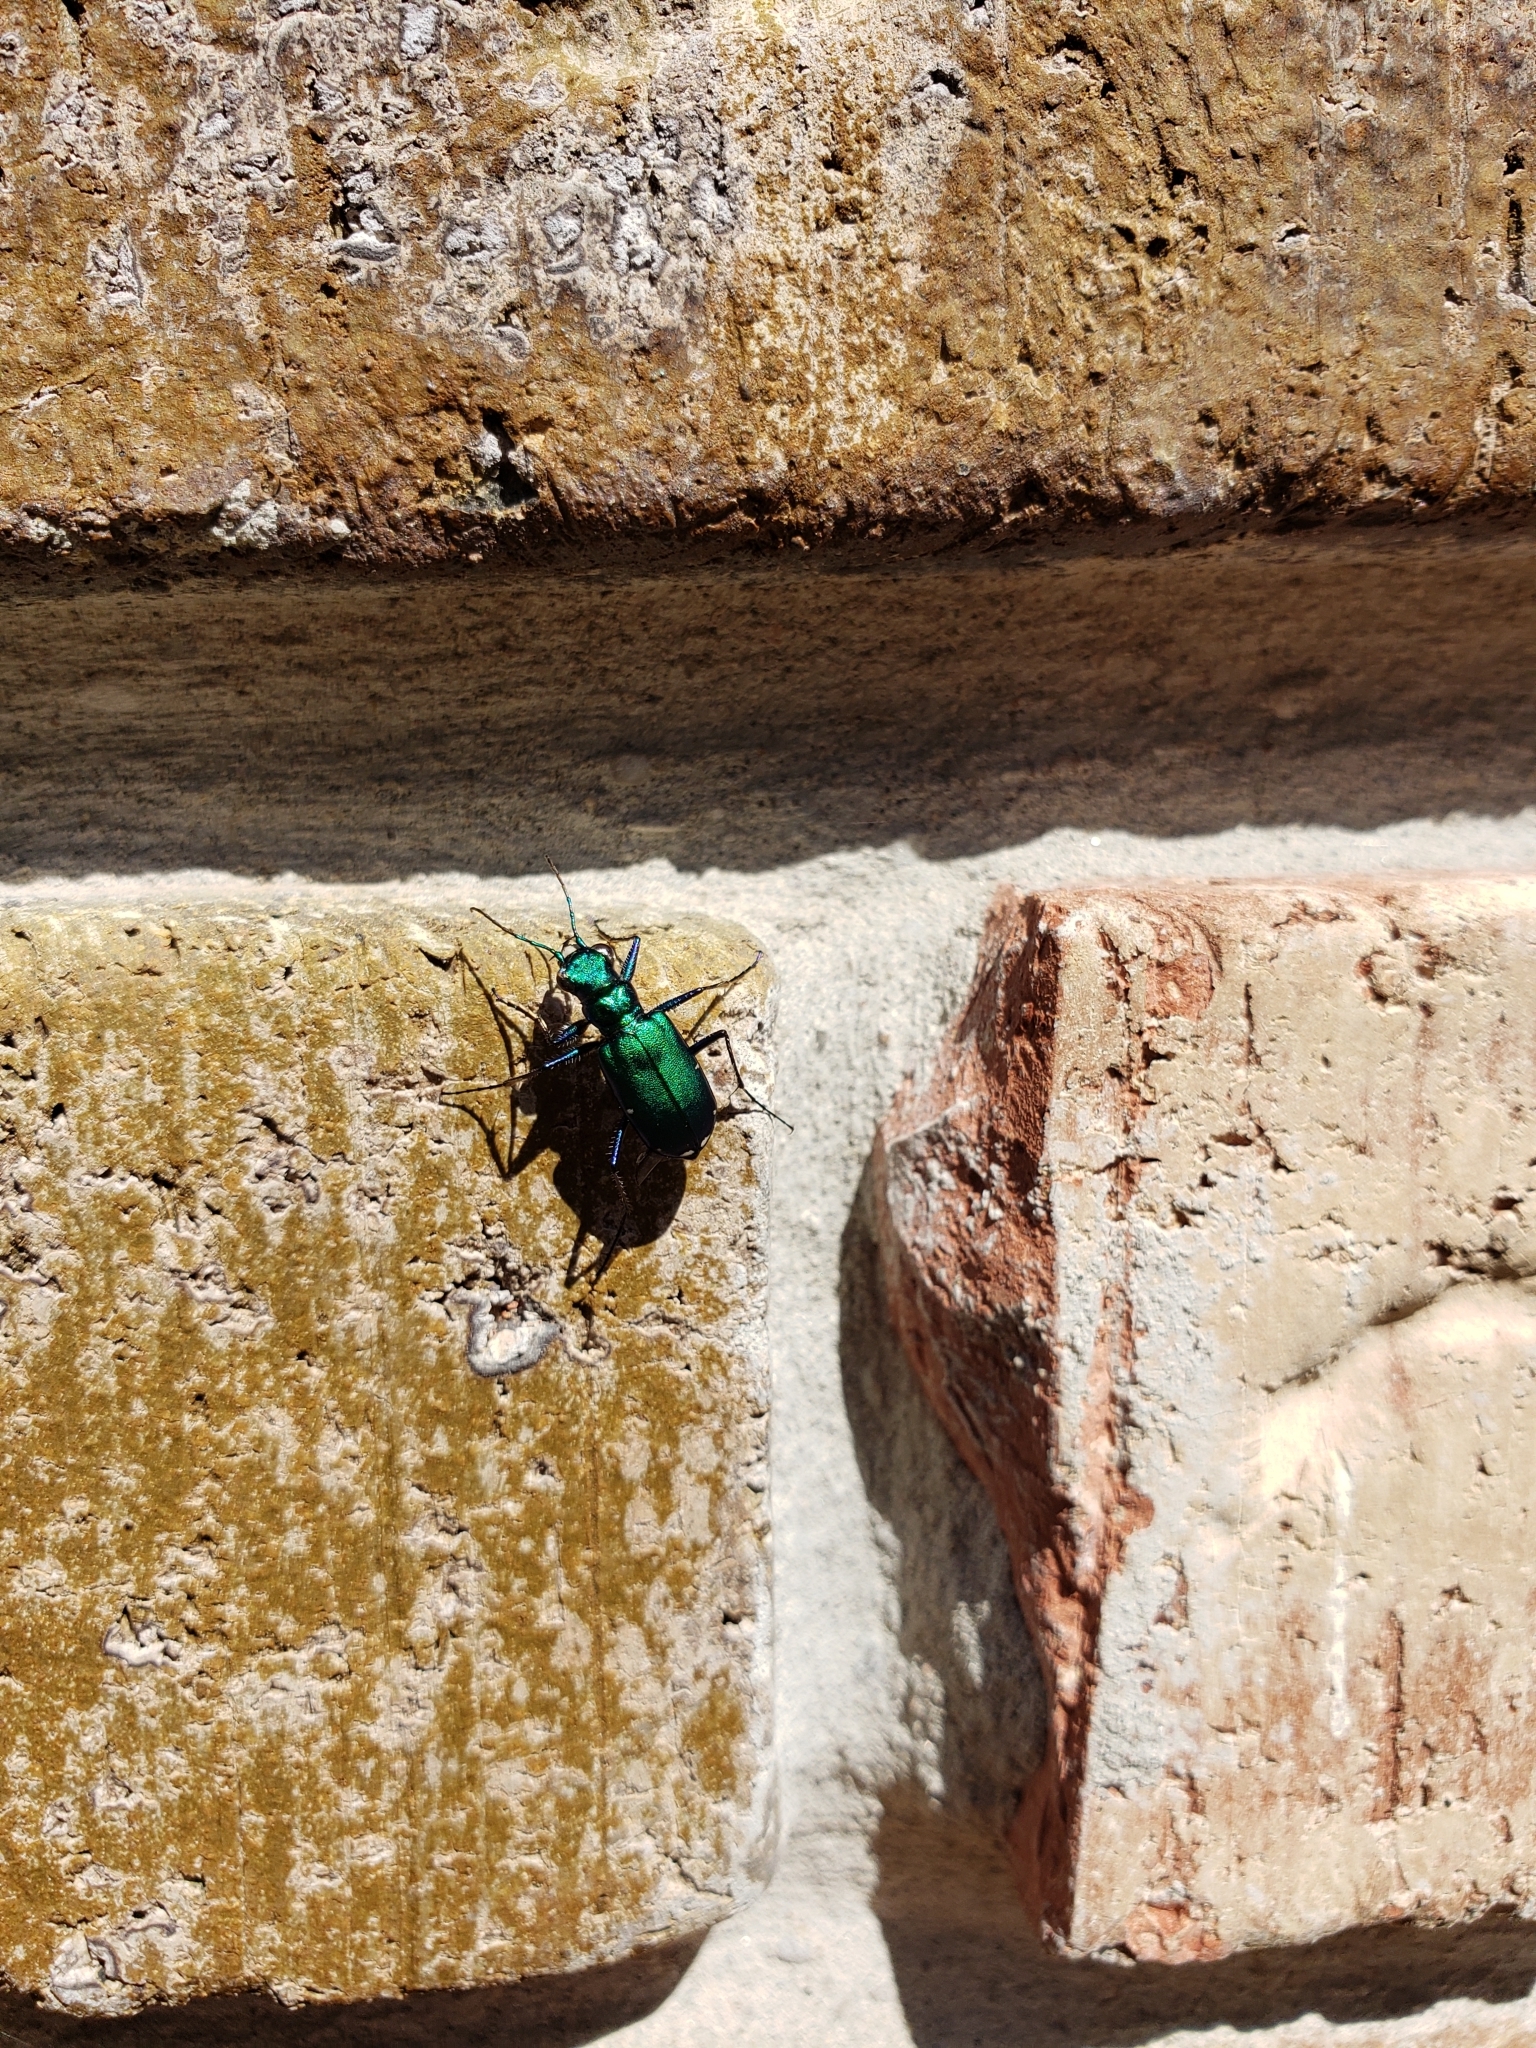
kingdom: Animalia
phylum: Arthropoda
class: Insecta
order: Coleoptera
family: Carabidae
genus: Cicindela
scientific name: Cicindela sexguttata
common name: Six-spotted tiger beetle
